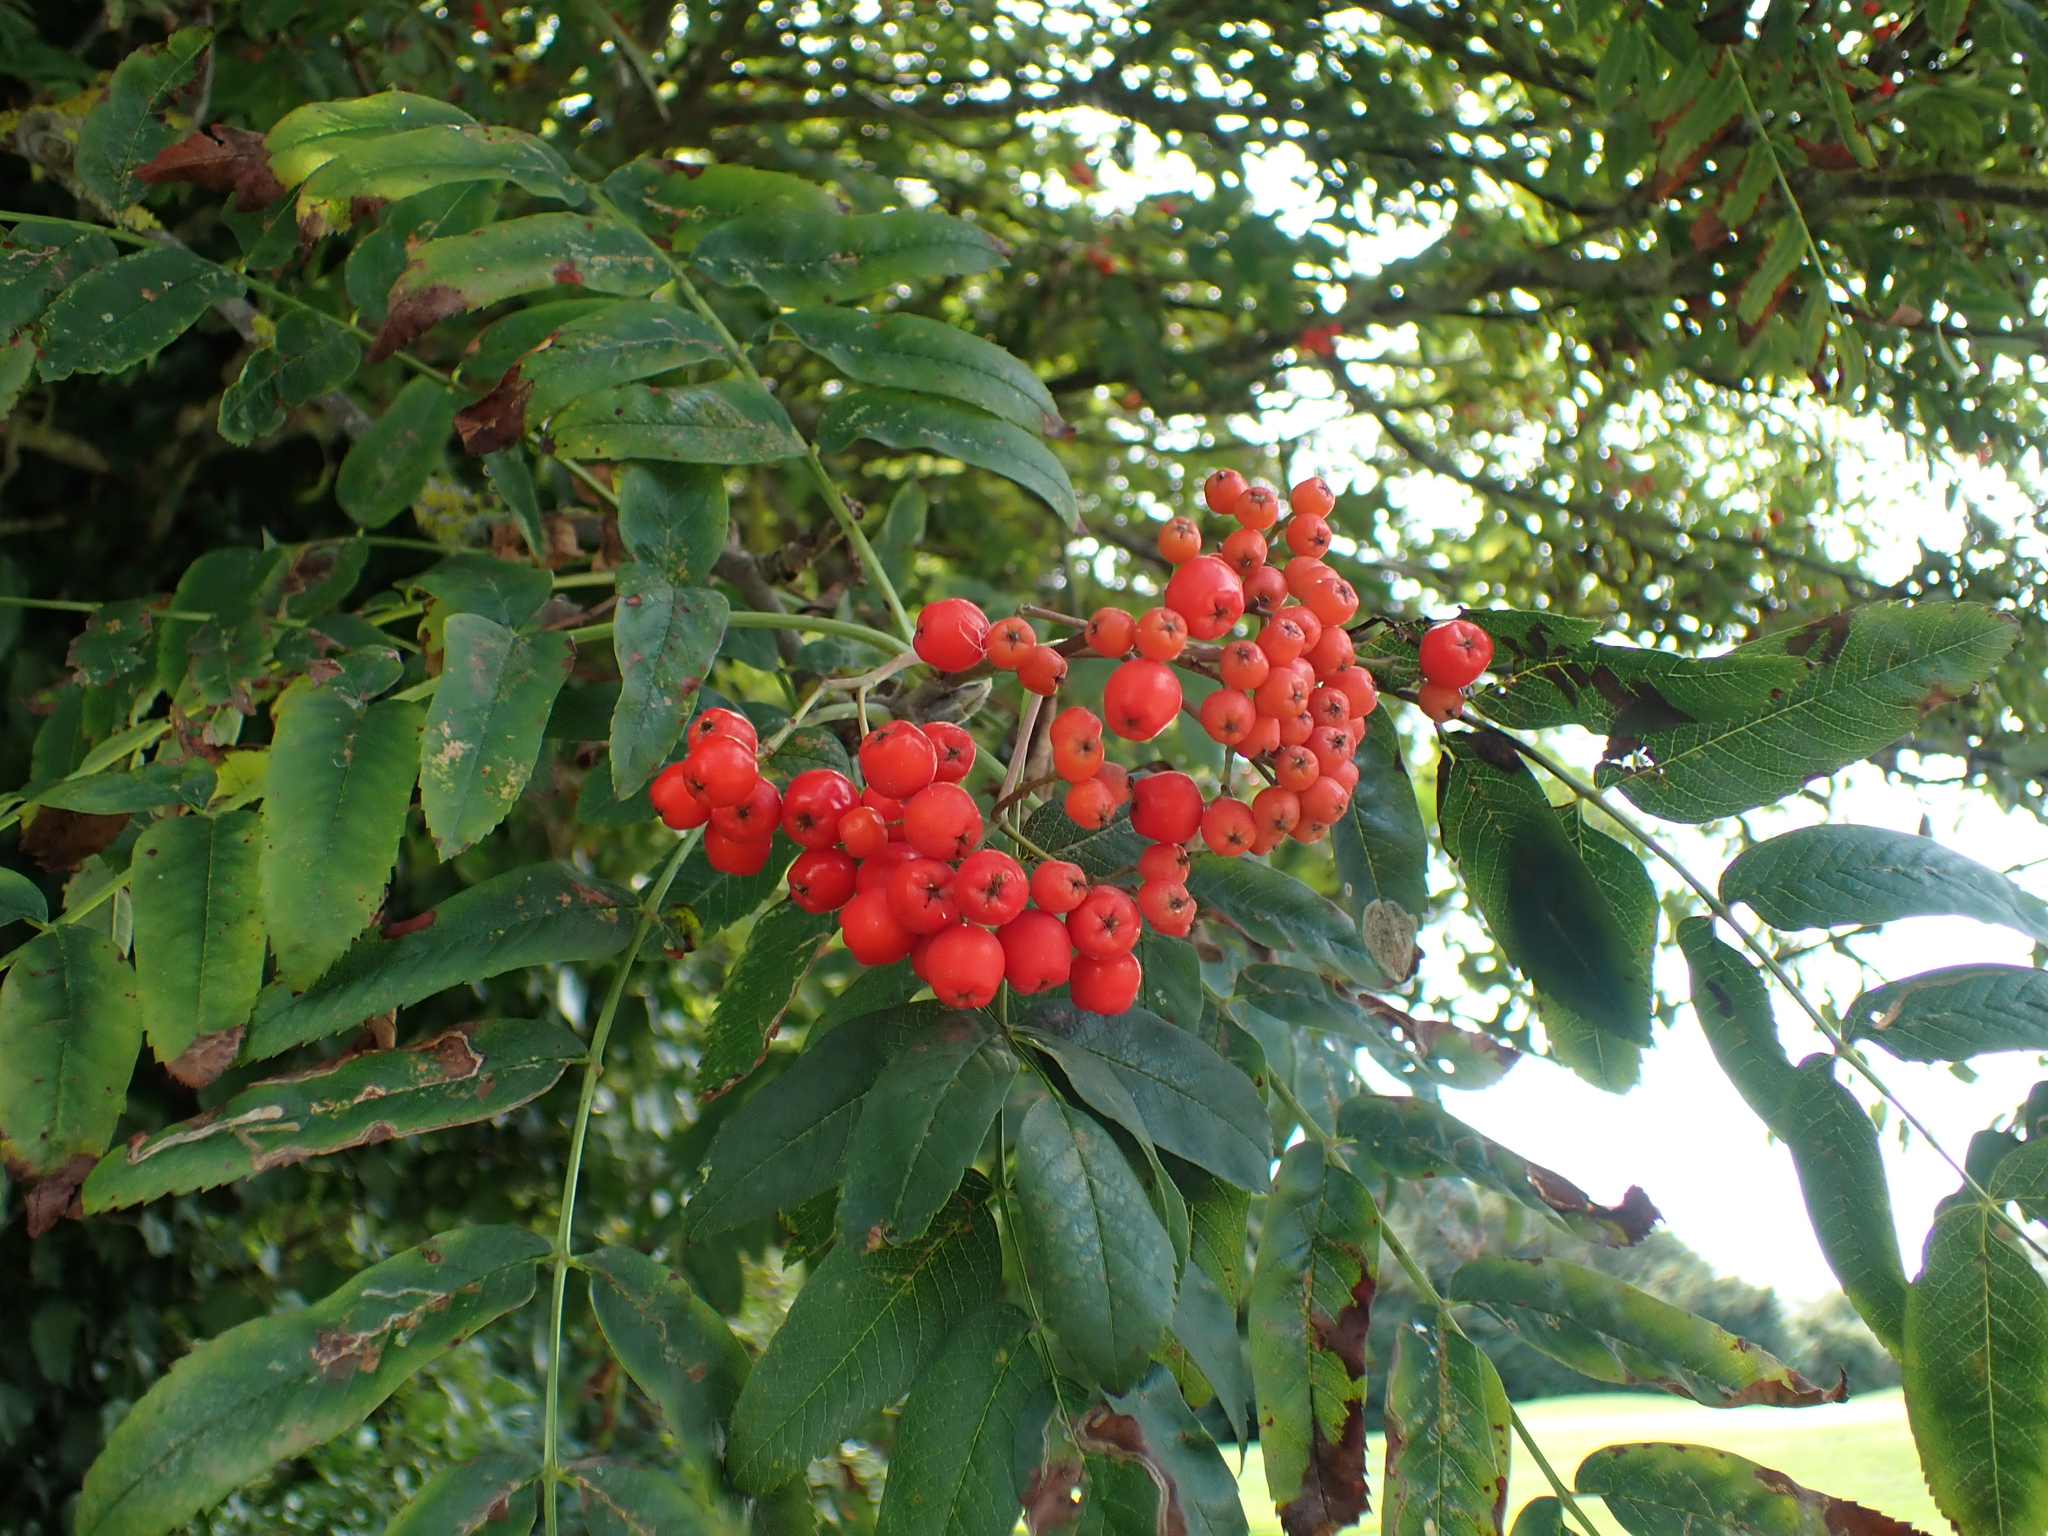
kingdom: Plantae
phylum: Tracheophyta
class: Magnoliopsida
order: Rosales
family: Rosaceae
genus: Sorbus
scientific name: Sorbus aucuparia
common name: Rowan
